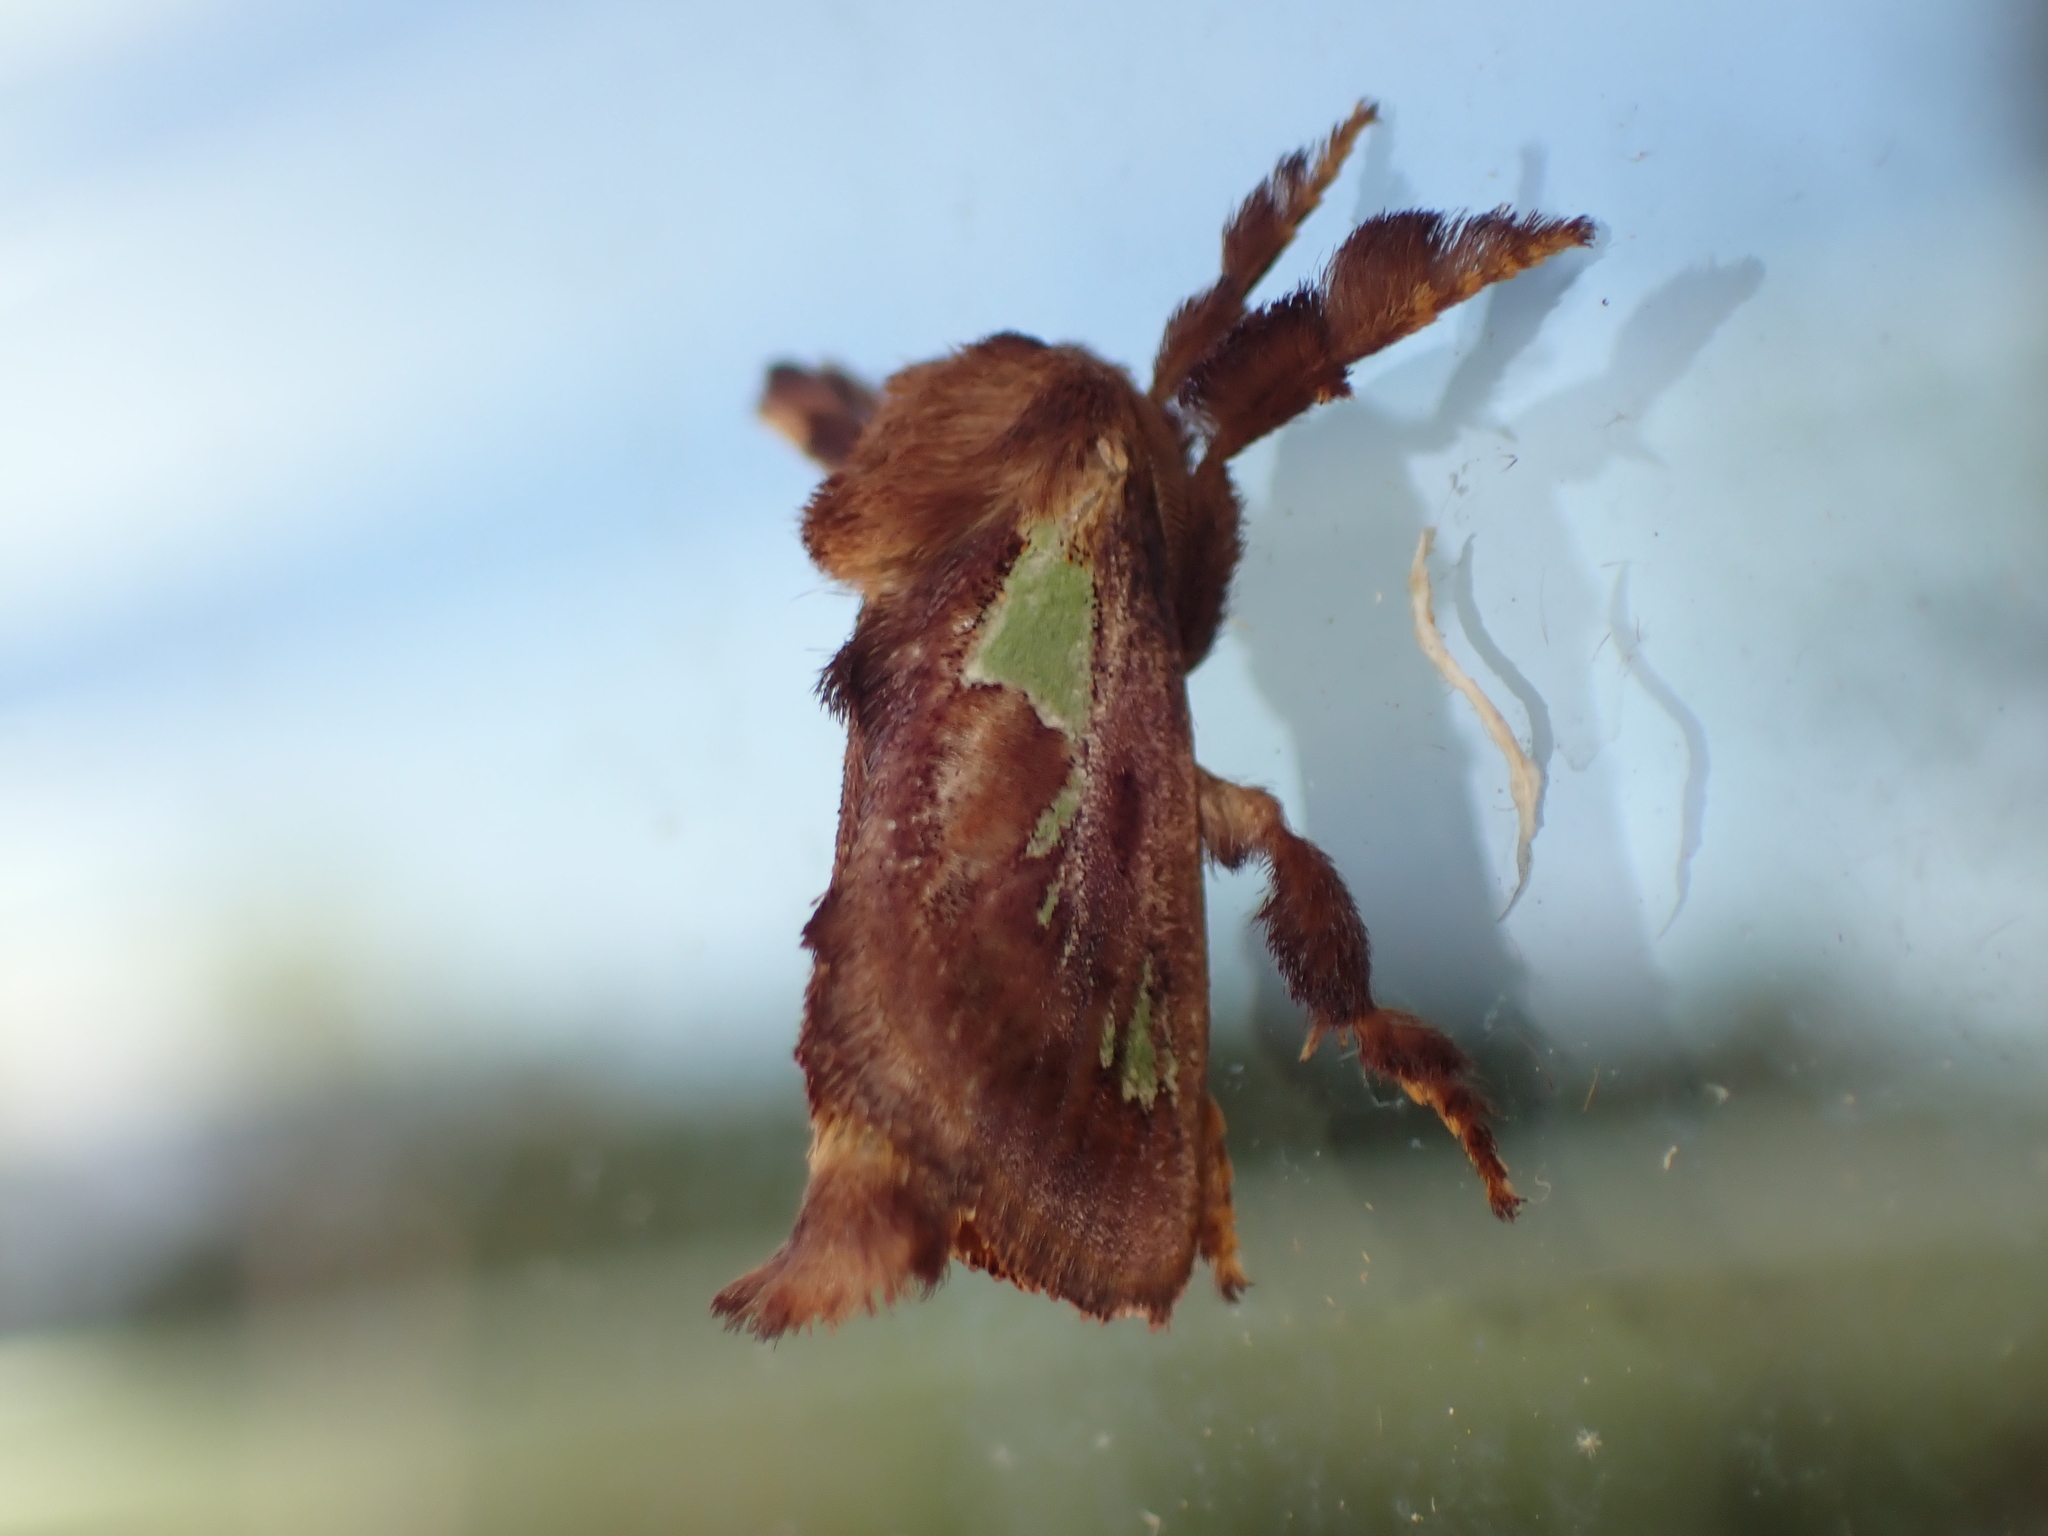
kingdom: Animalia
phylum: Arthropoda
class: Insecta
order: Lepidoptera
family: Limacodidae
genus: Euclea
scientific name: Euclea delphinii
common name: Spiny oak-slug moth
